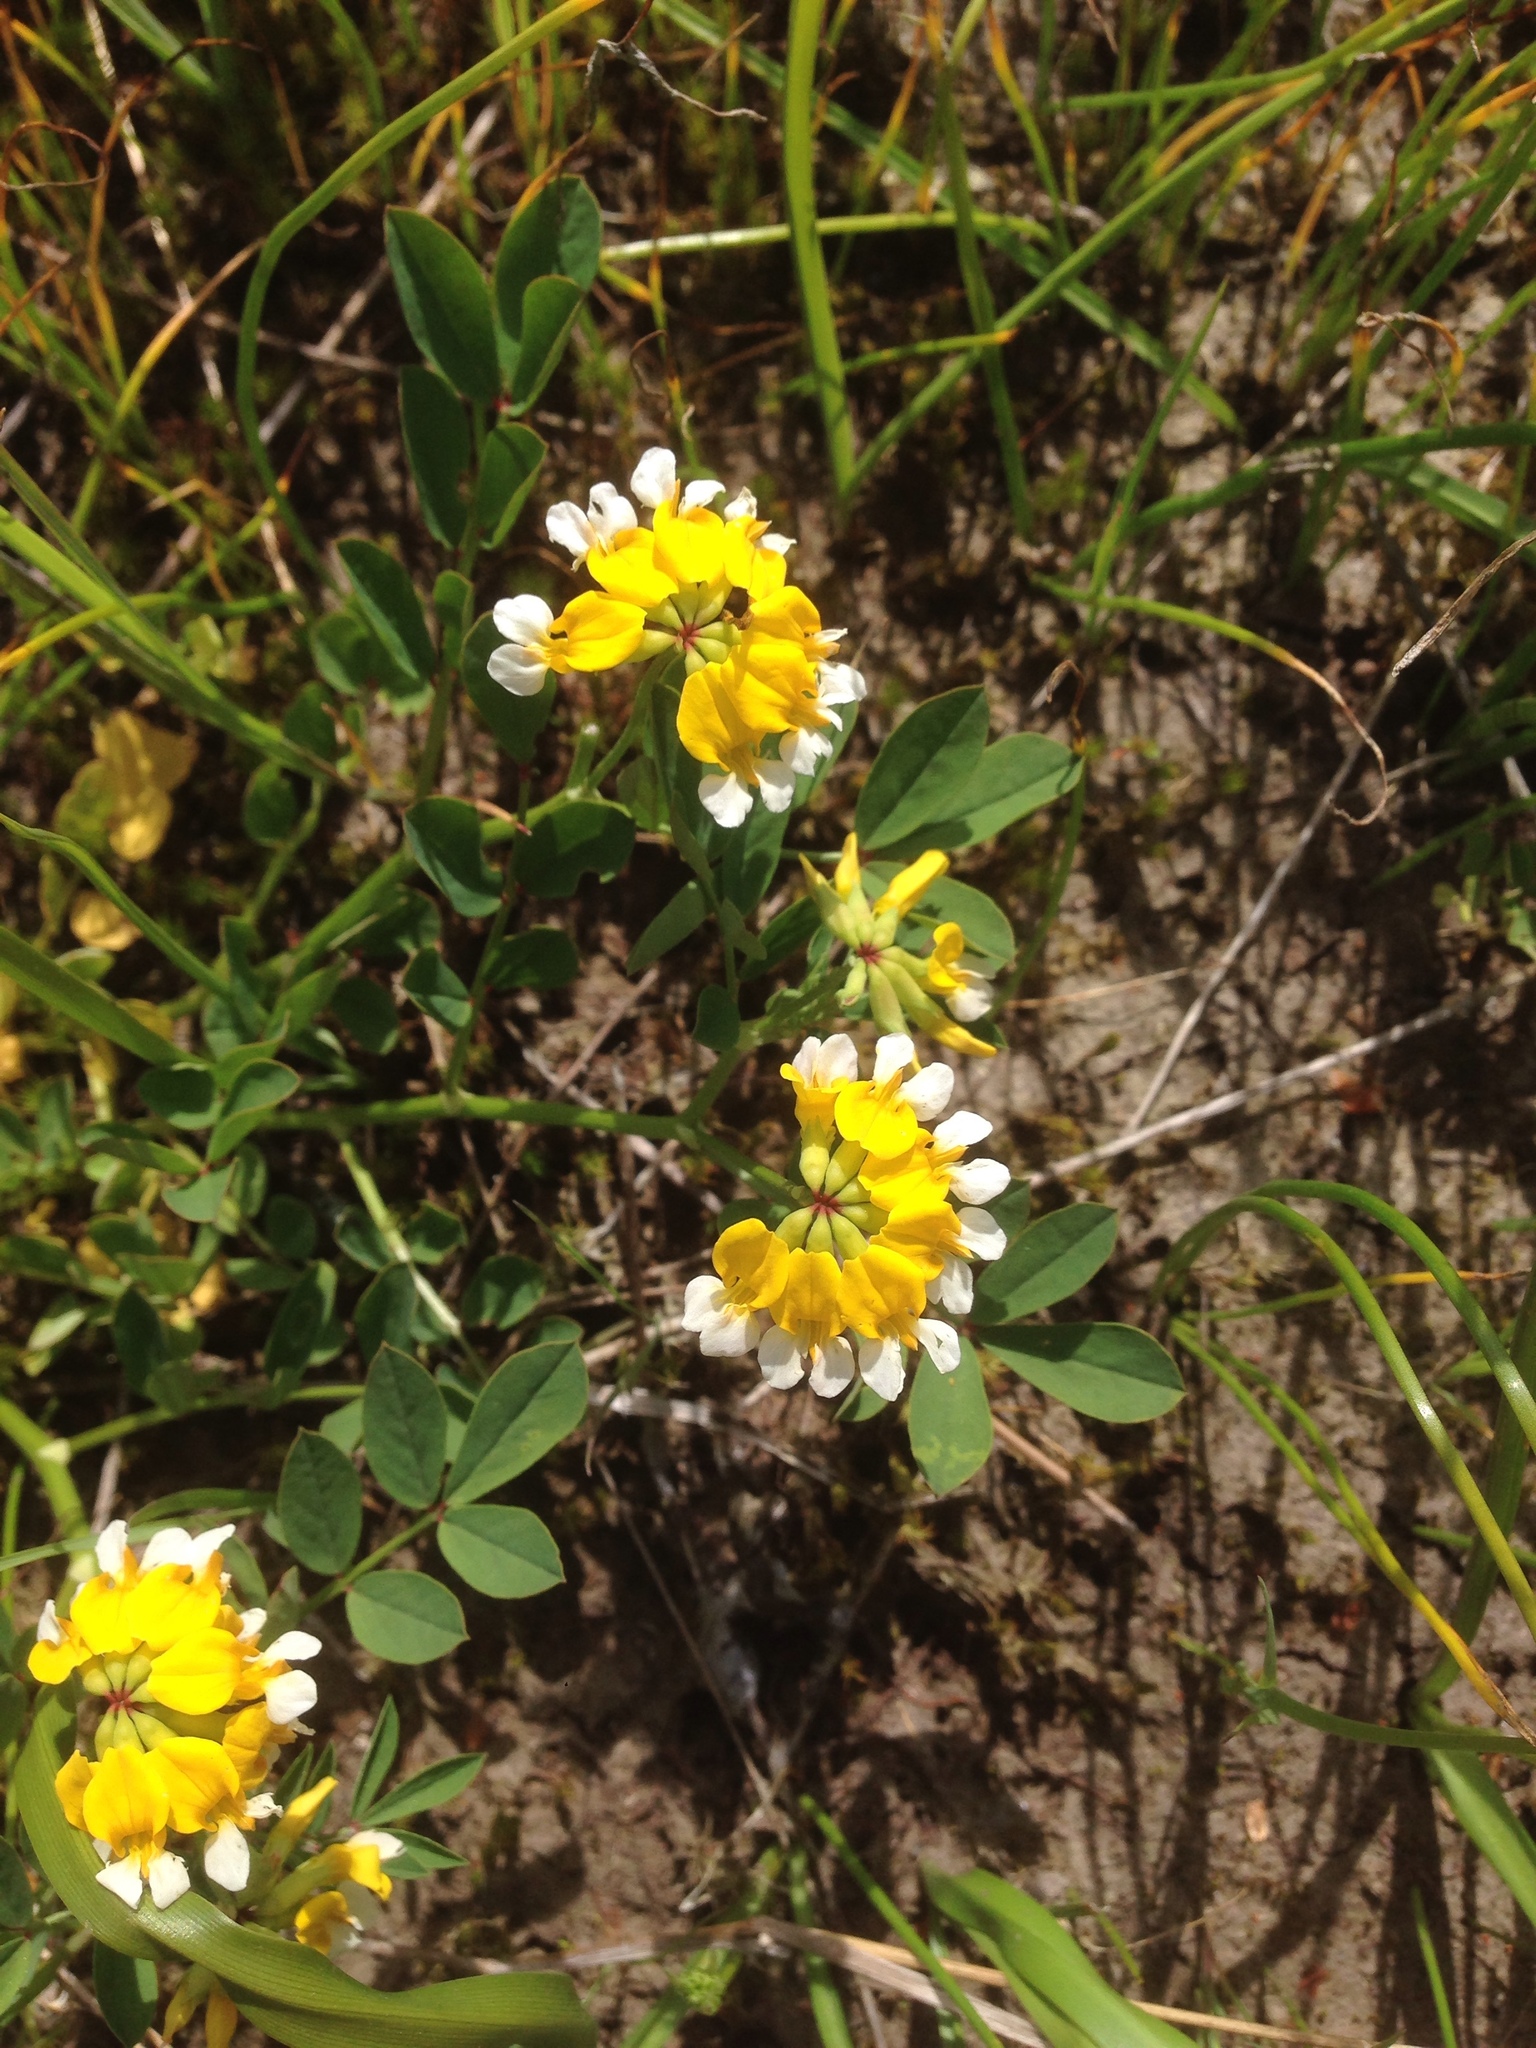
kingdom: Plantae
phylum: Tracheophyta
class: Magnoliopsida
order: Fabales
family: Fabaceae
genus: Hosackia
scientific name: Hosackia pinnata
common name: Bog bird's-foot trefoil
